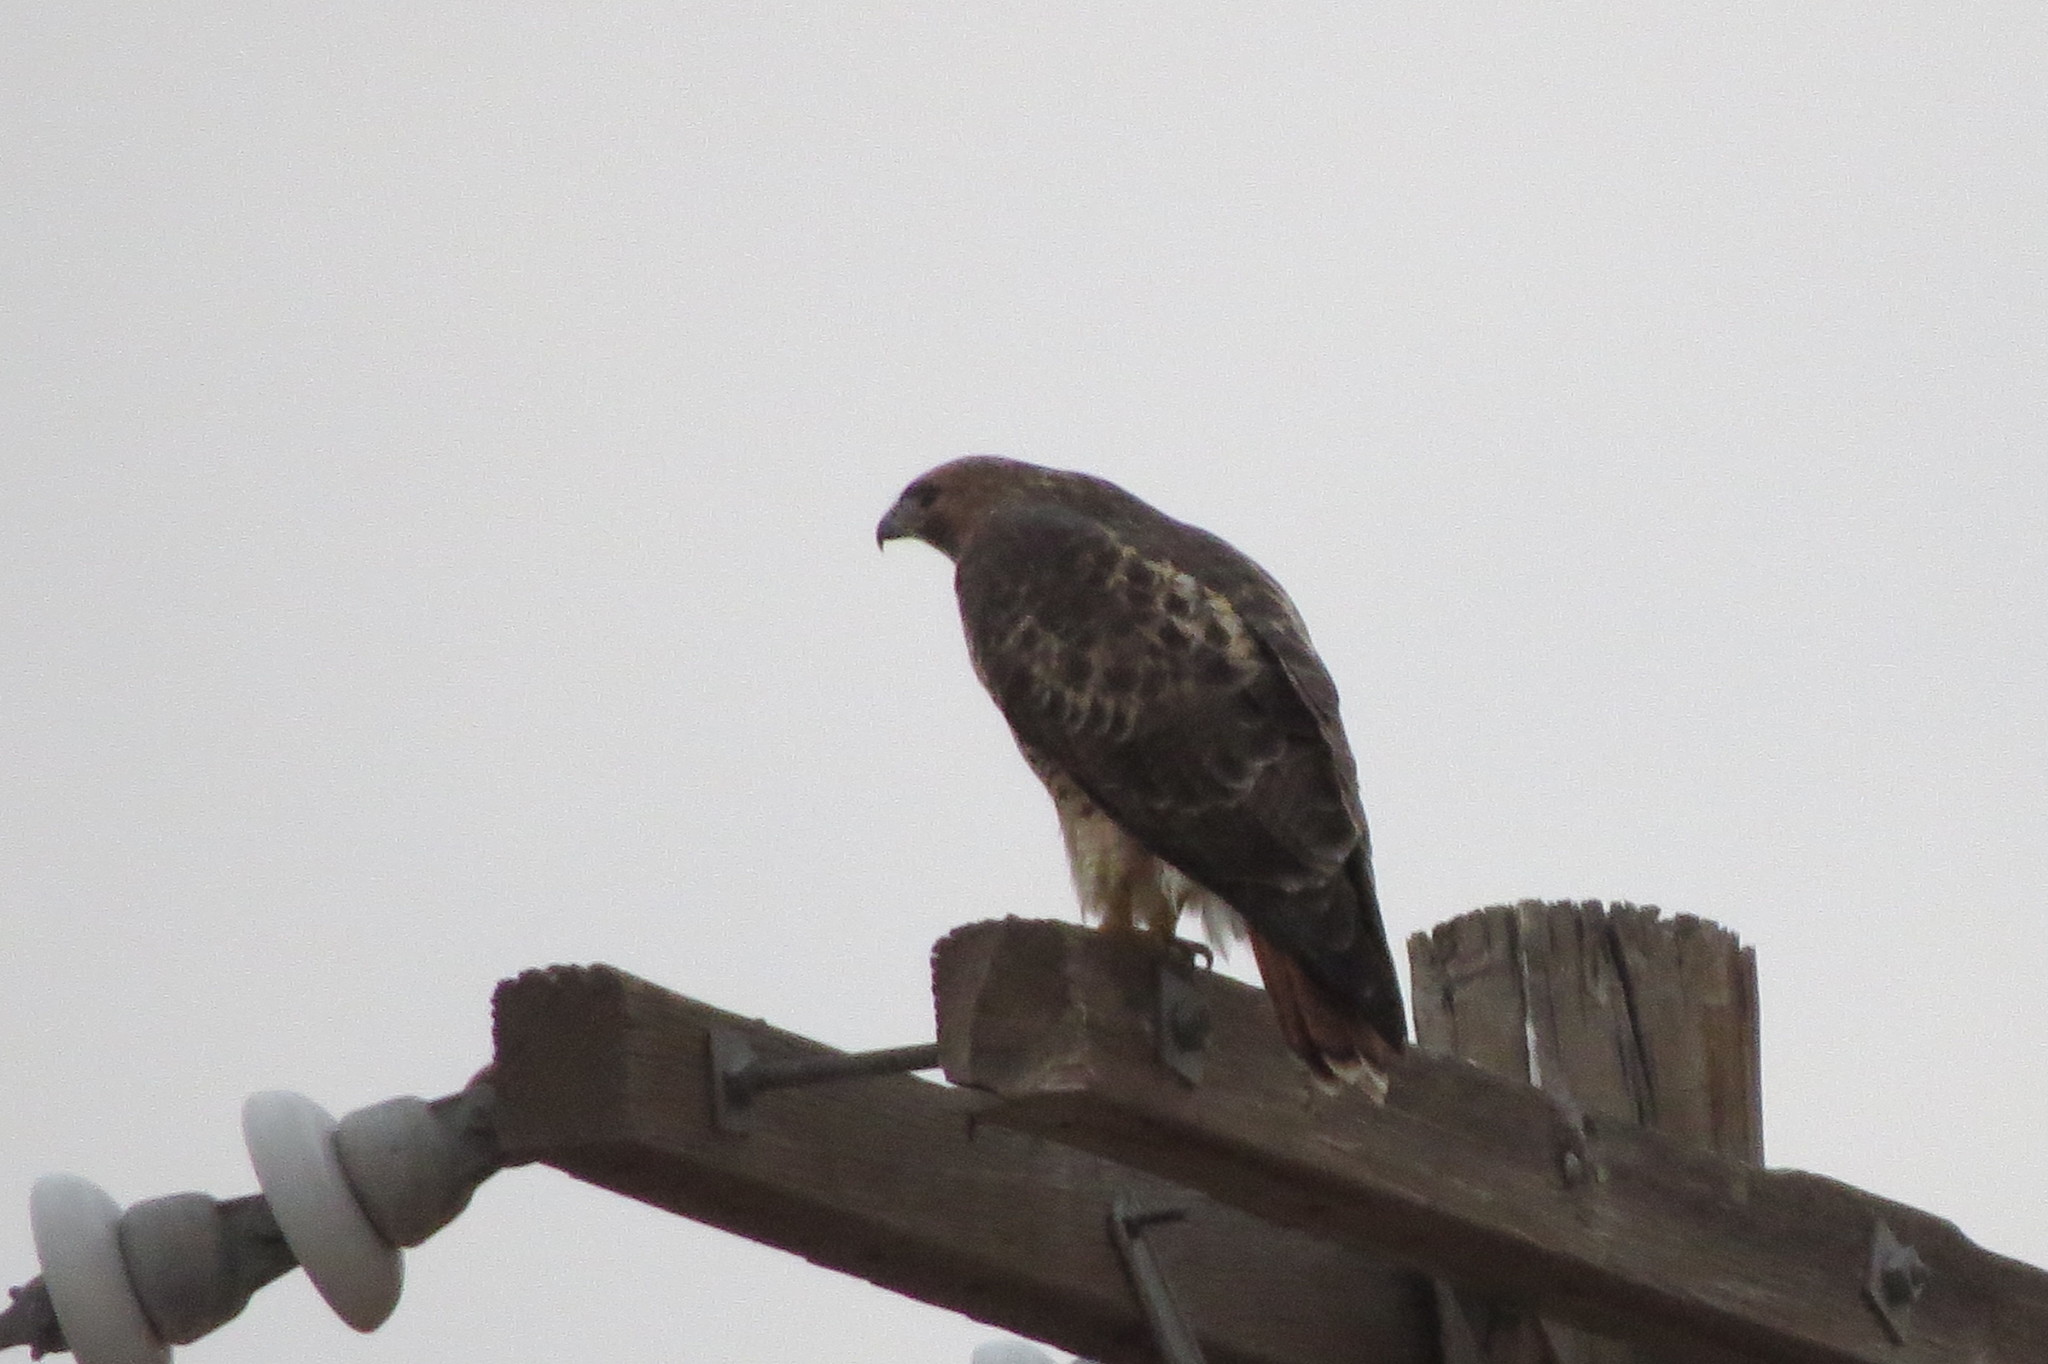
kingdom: Animalia
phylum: Chordata
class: Aves
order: Accipitriformes
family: Accipitridae
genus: Buteo
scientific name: Buteo jamaicensis
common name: Red-tailed hawk
